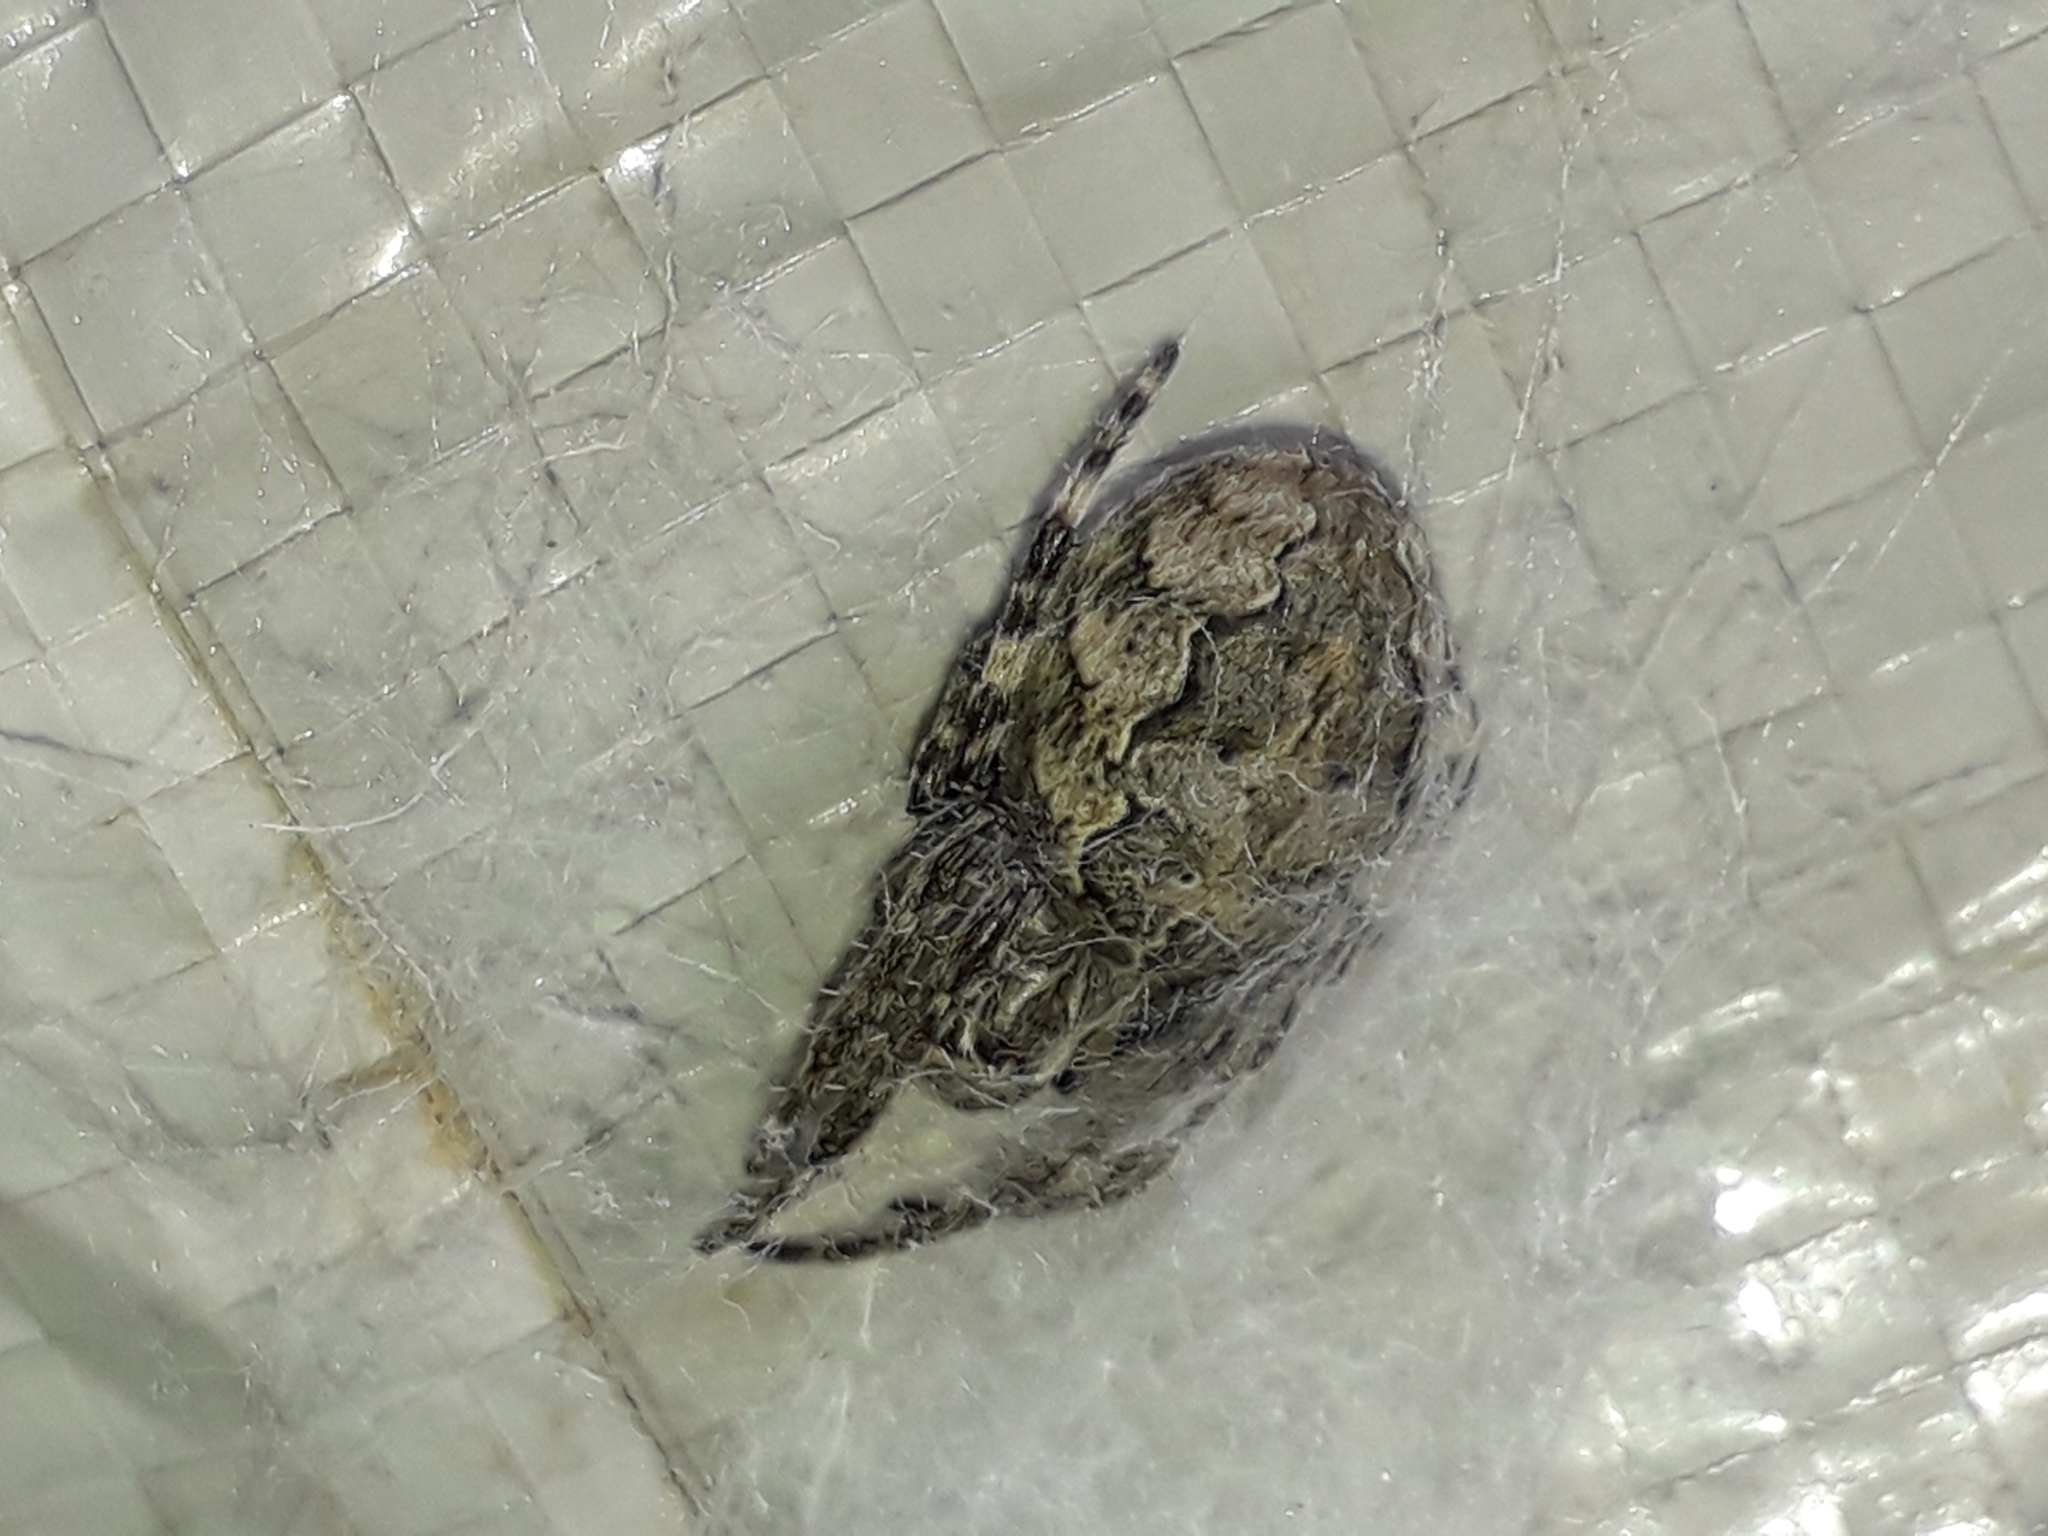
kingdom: Animalia
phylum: Arthropoda
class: Arachnida
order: Araneae
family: Araneidae
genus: Larinioides
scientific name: Larinioides sclopetarius
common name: Bridge orbweaver
